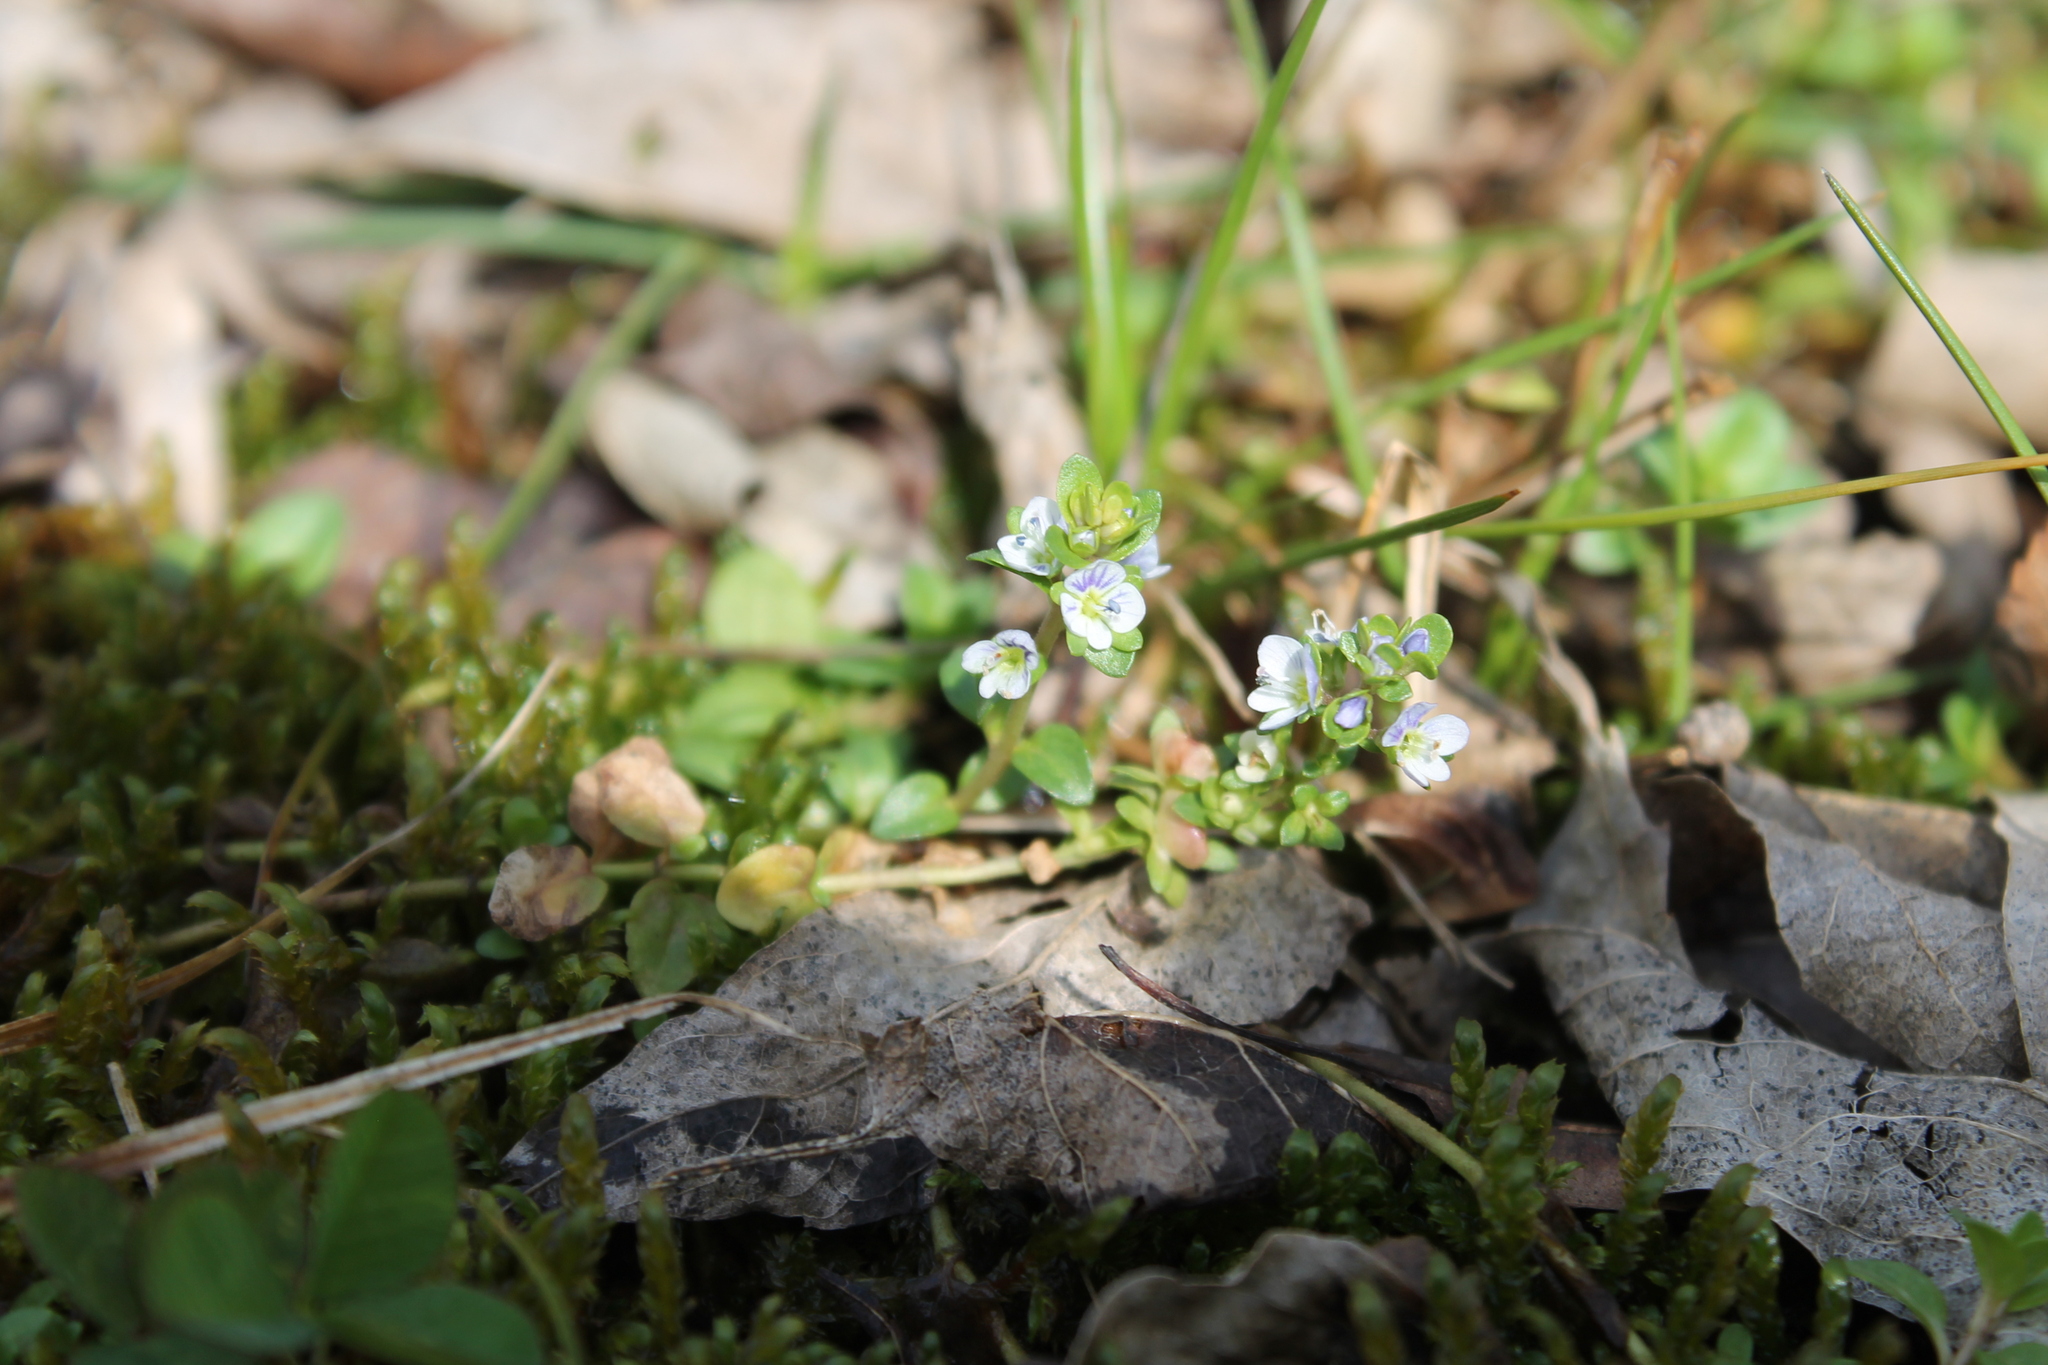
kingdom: Plantae
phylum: Tracheophyta
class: Magnoliopsida
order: Lamiales
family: Plantaginaceae
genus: Veronica
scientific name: Veronica serpyllifolia
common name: Thyme-leaved speedwell
